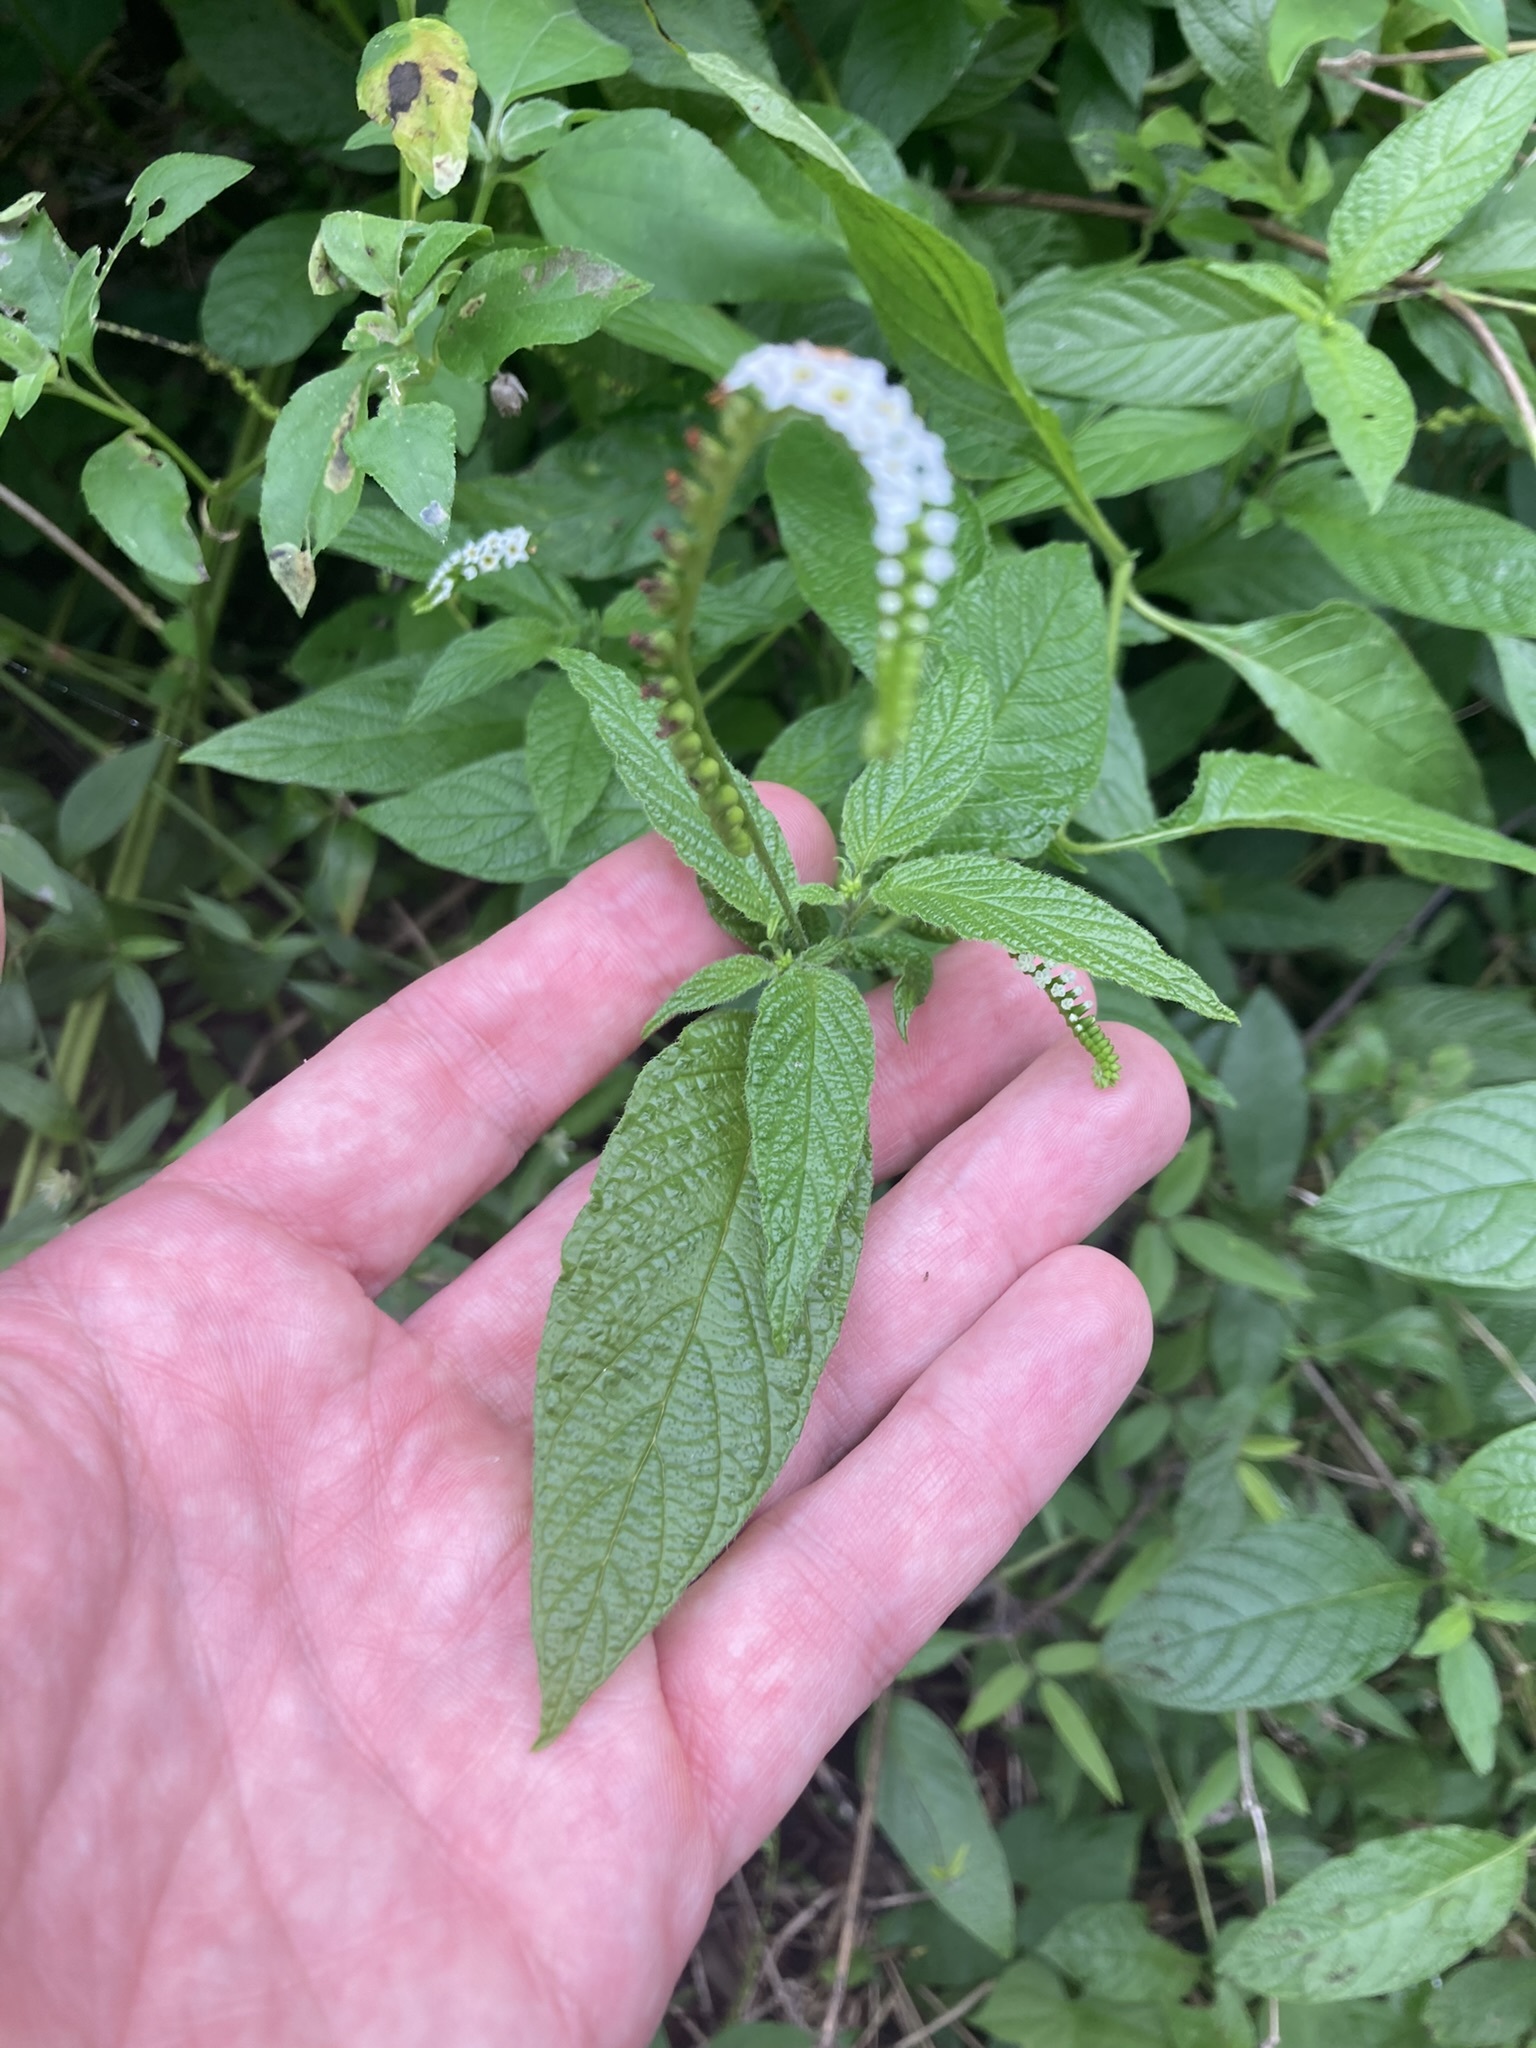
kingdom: Plantae
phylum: Tracheophyta
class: Magnoliopsida
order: Boraginales
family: Heliotropiaceae
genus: Heliotropium
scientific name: Heliotropium angiospermum
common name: Eye bright
